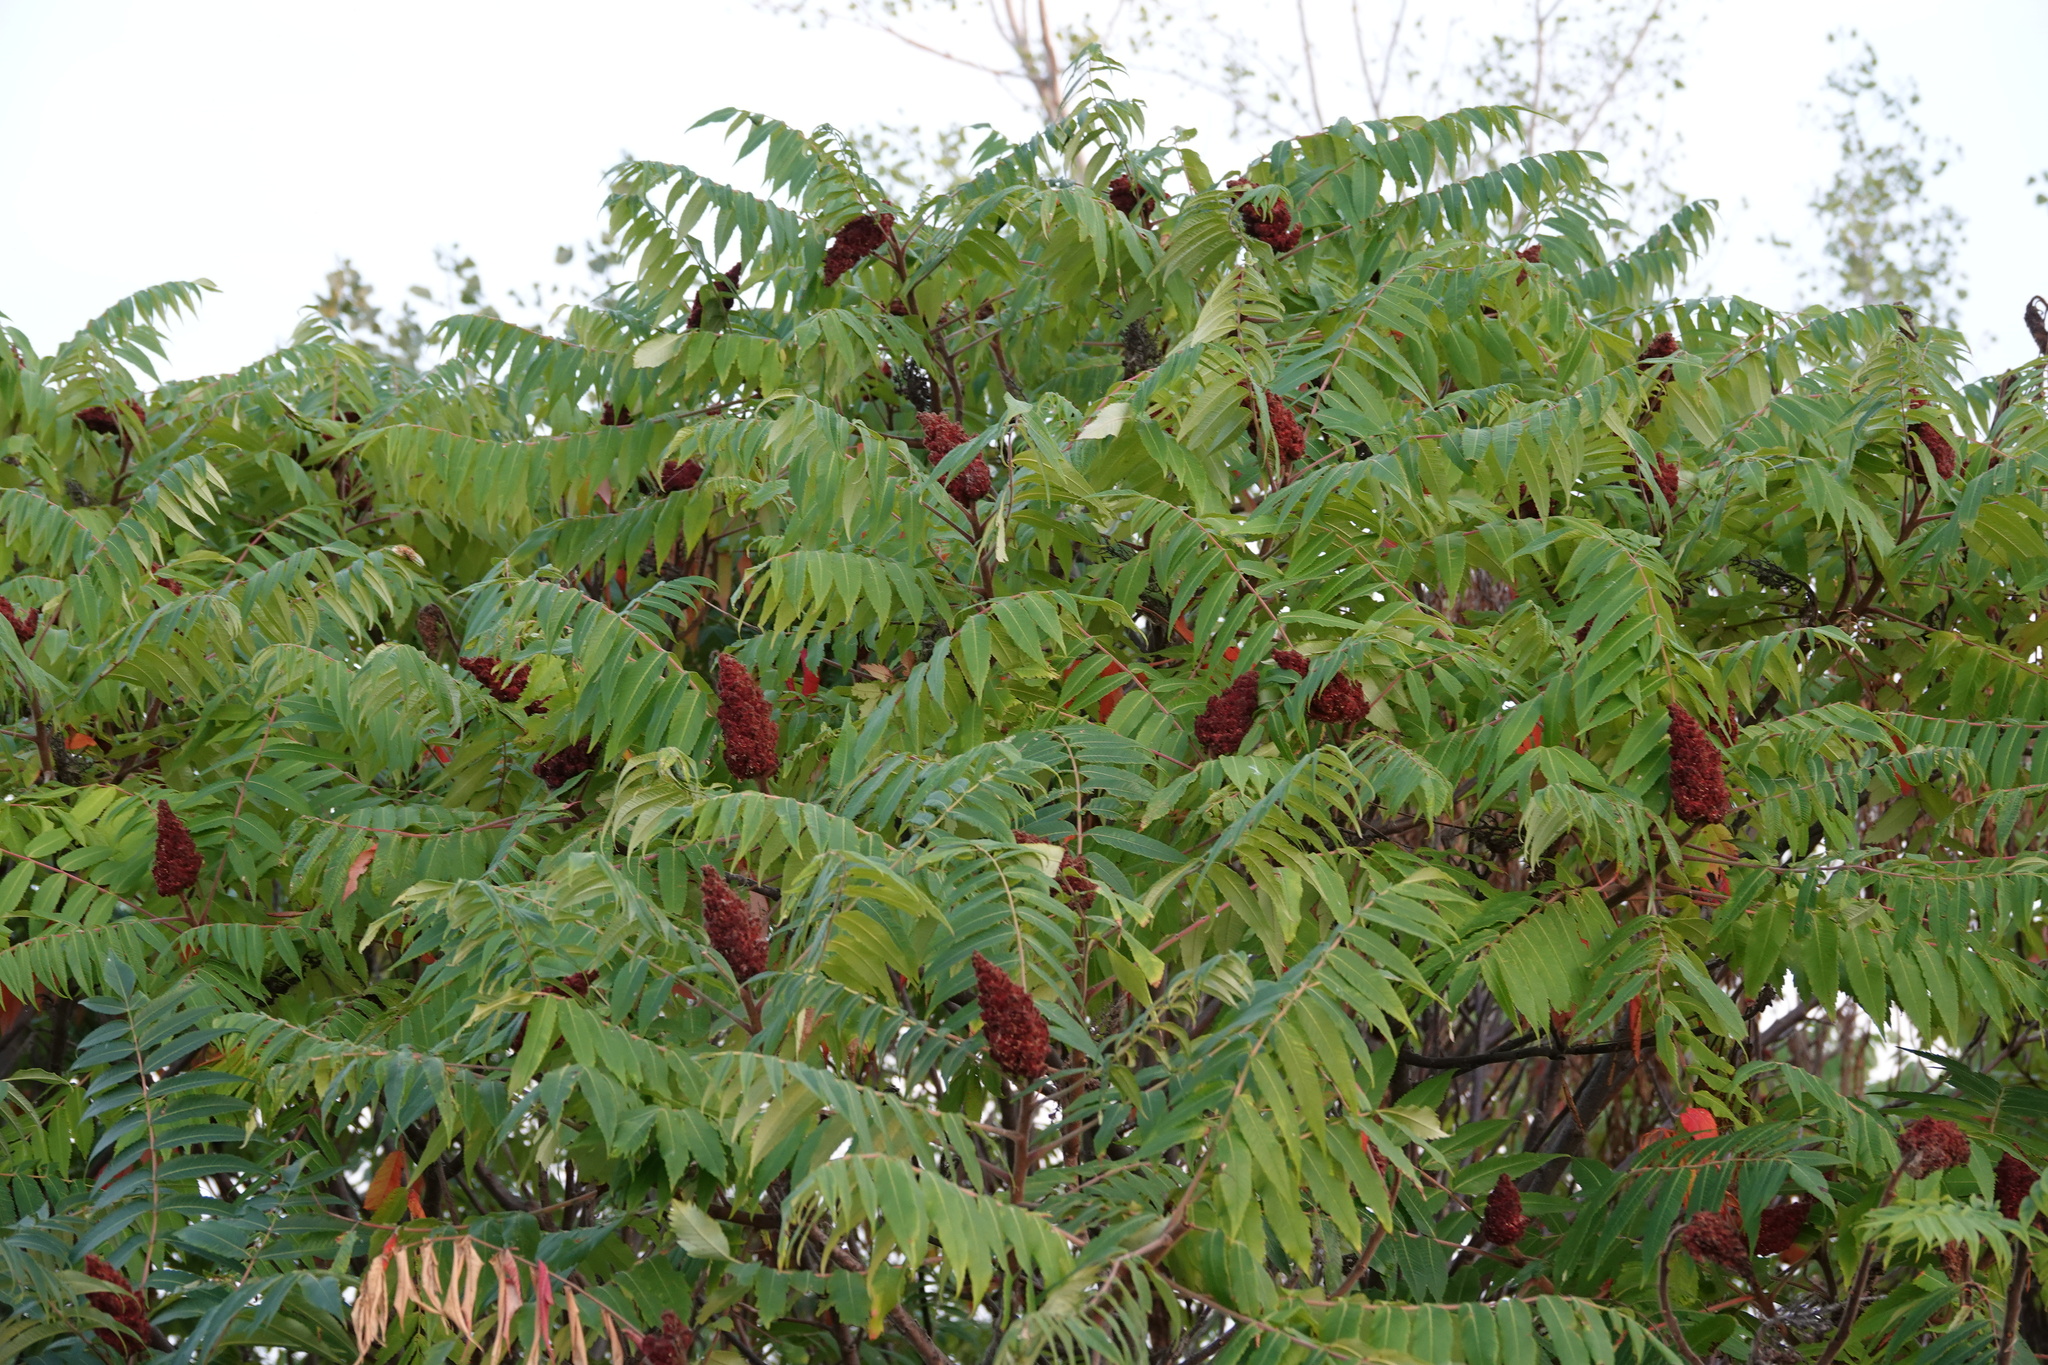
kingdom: Plantae
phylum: Tracheophyta
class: Magnoliopsida
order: Sapindales
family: Anacardiaceae
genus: Rhus
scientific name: Rhus typhina
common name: Staghorn sumac
